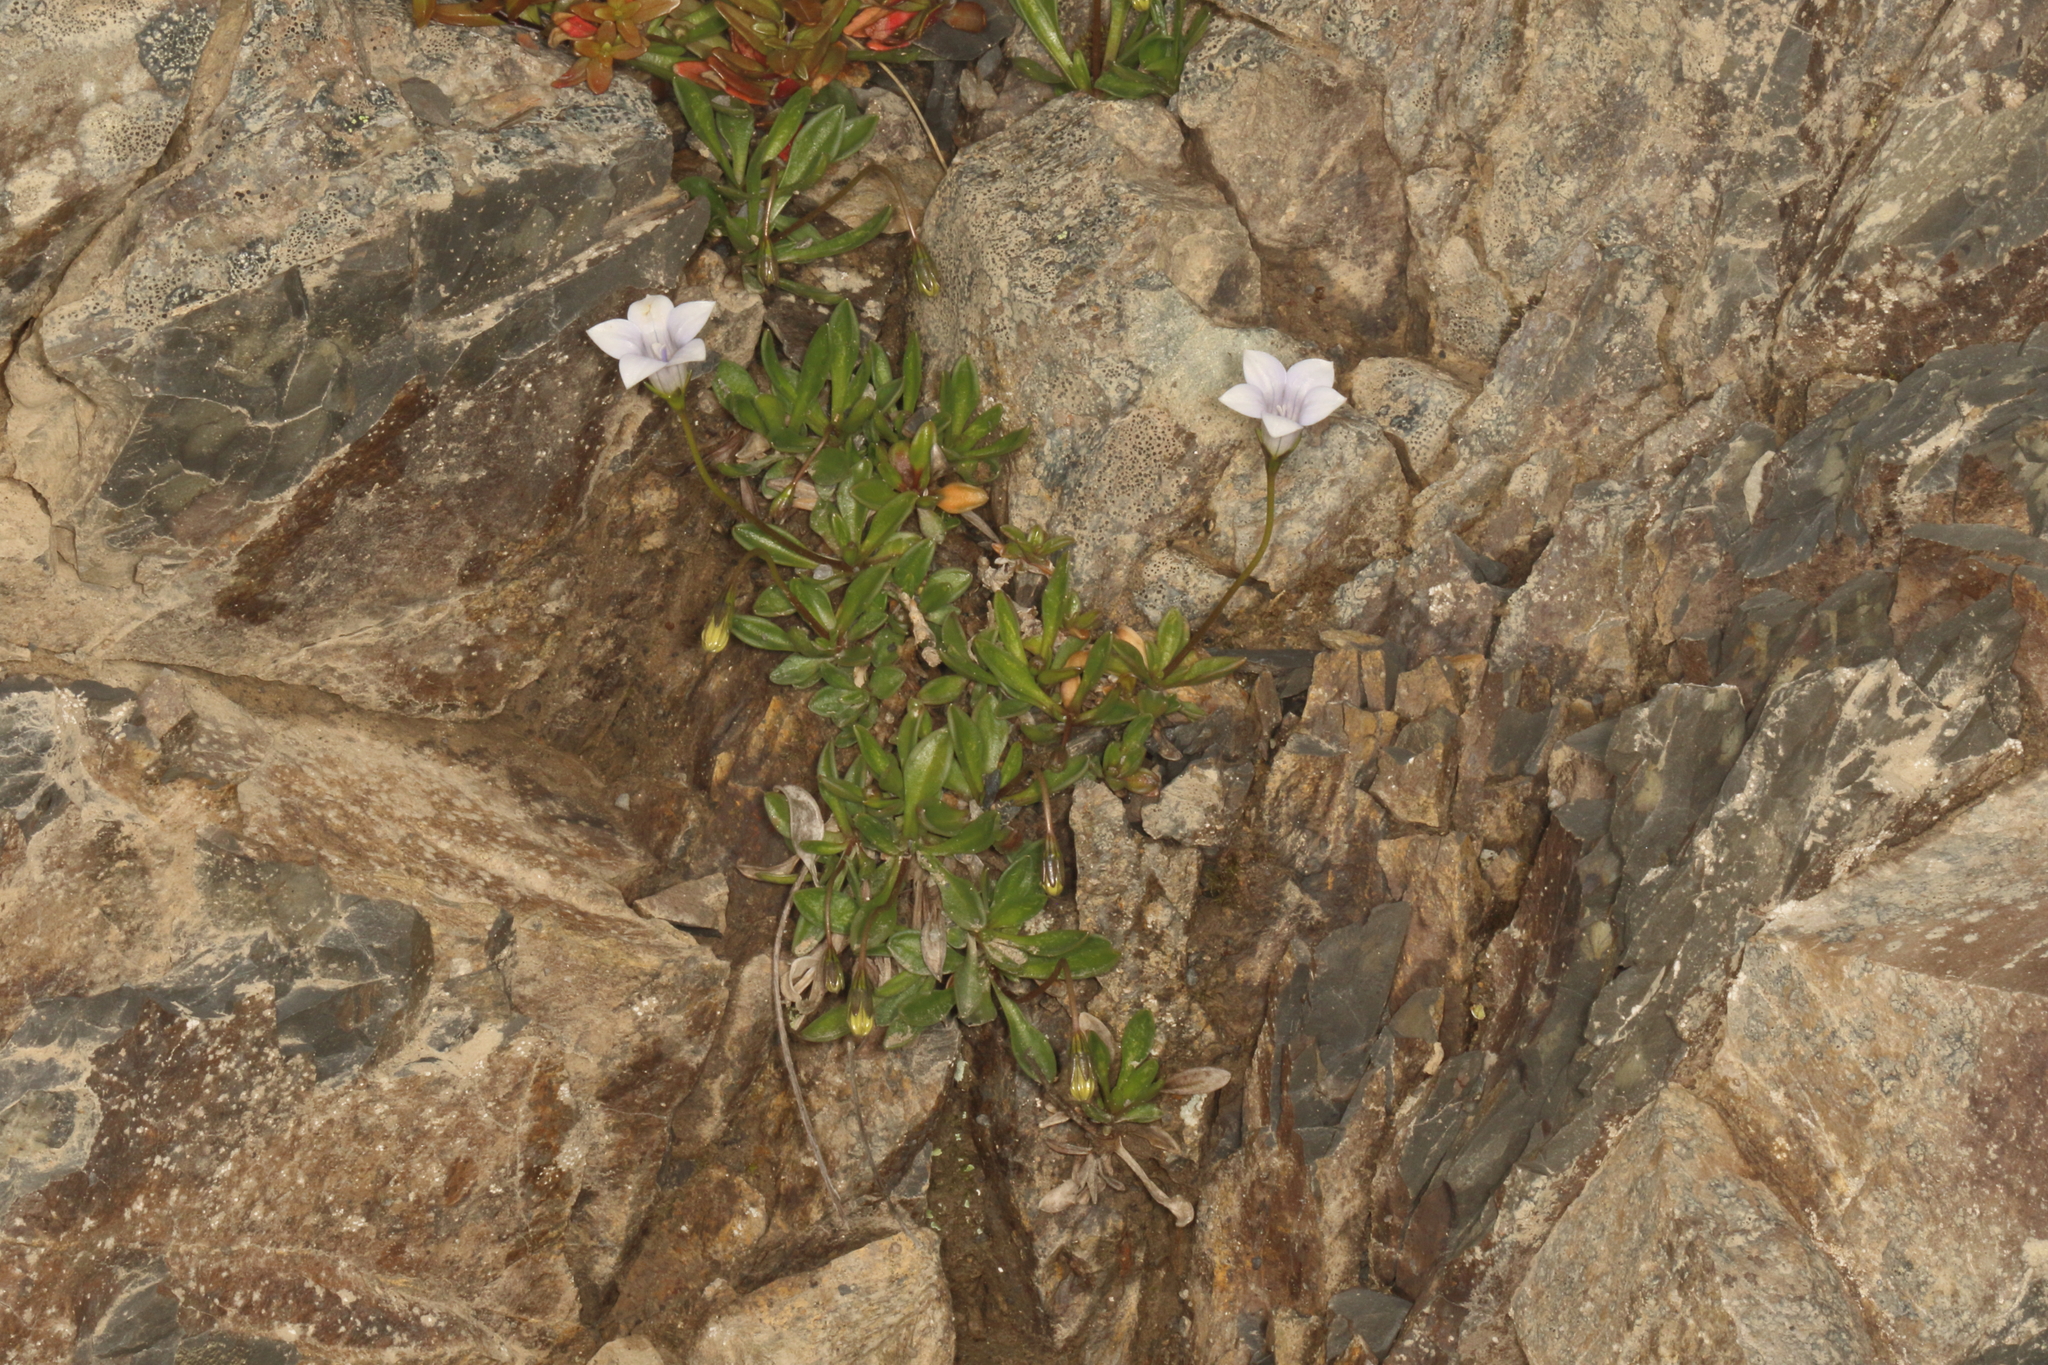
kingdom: Plantae
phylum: Tracheophyta
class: Magnoliopsida
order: Asterales
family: Campanulaceae
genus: Wahlenbergia
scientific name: Wahlenbergia albomarginata
